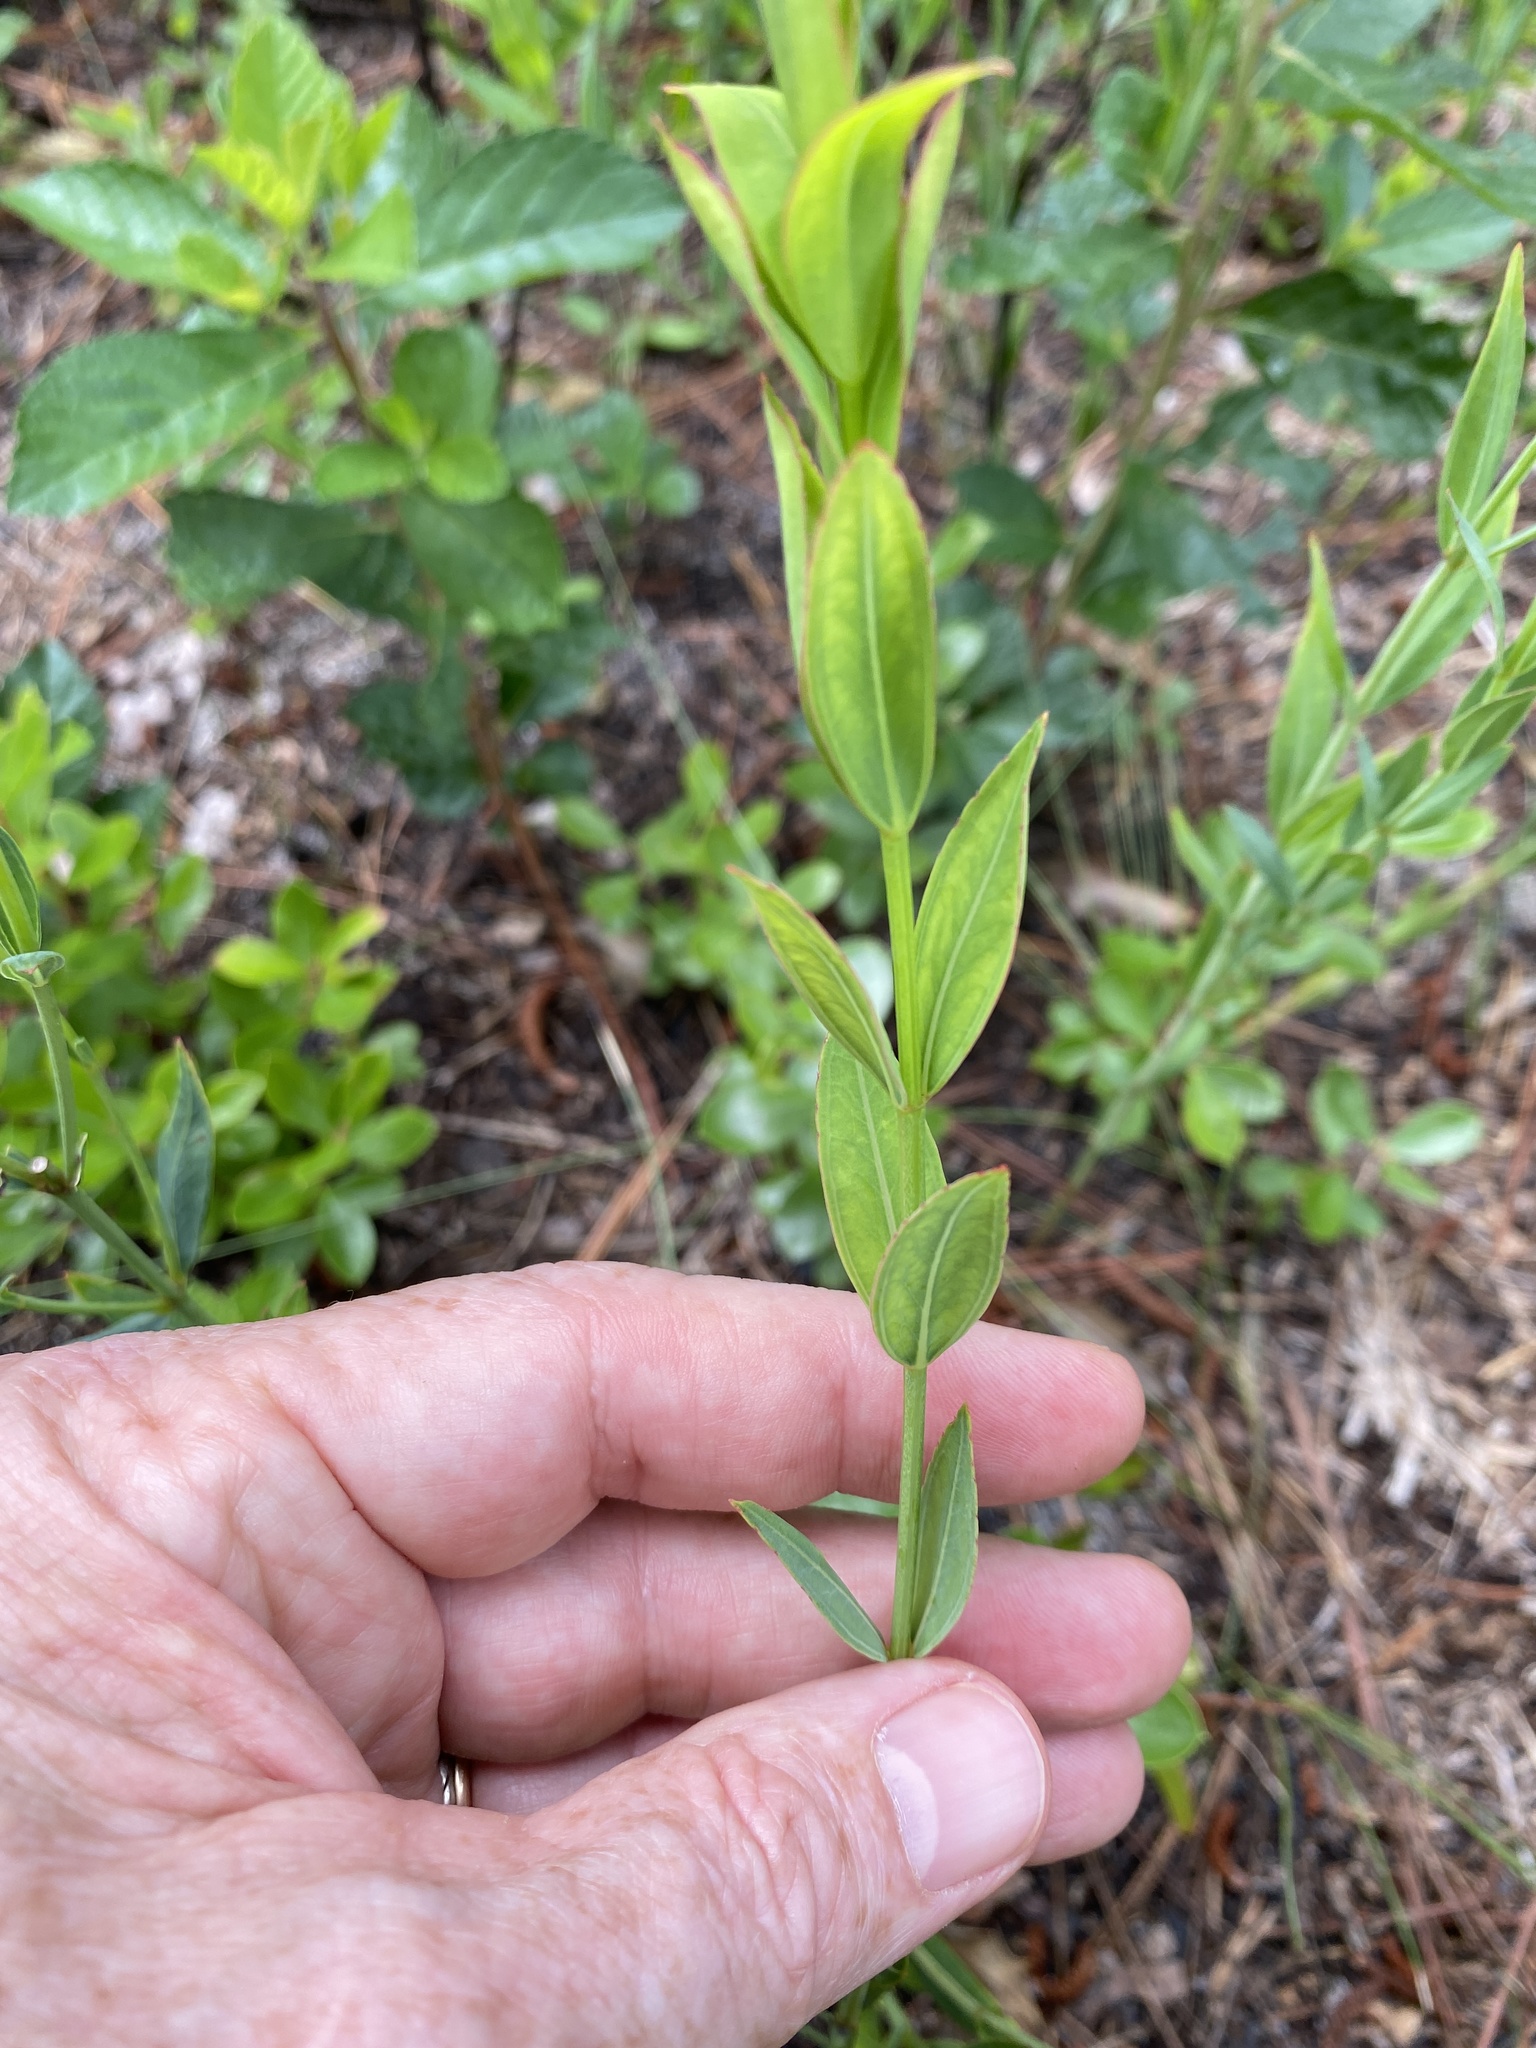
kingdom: Plantae
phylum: Tracheophyta
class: Magnoliopsida
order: Myrtales
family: Melastomataceae
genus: Rhexia
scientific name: Rhexia alifanus
